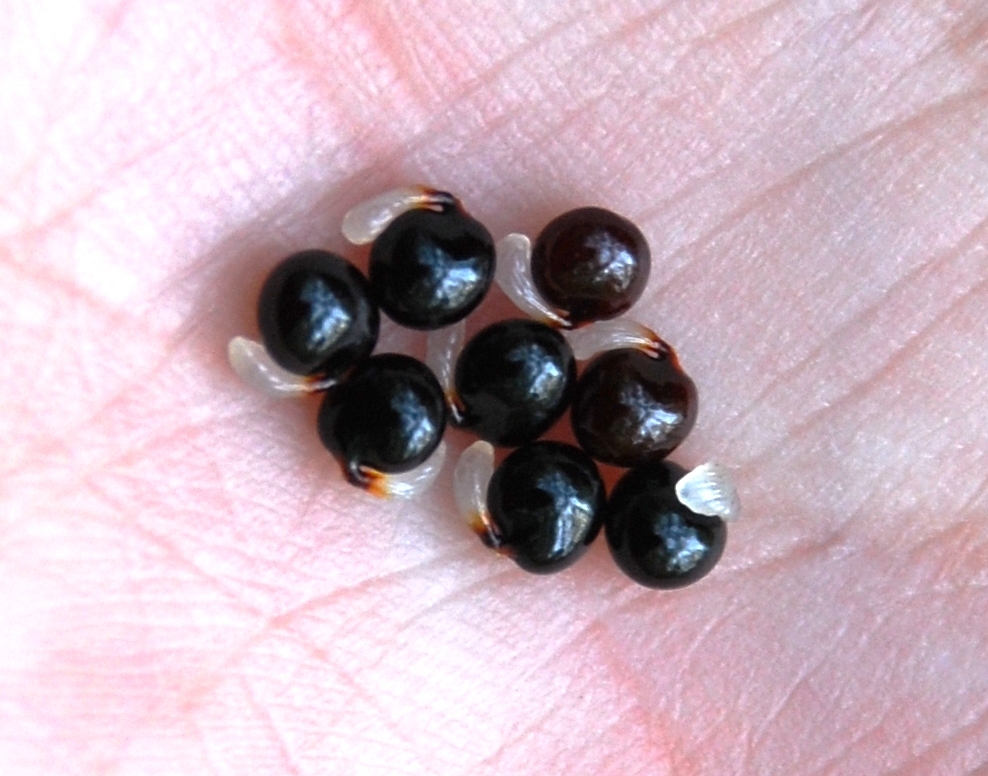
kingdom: Plantae
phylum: Tracheophyta
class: Magnoliopsida
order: Ranunculales
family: Papaveraceae
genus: Corydalis
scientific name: Corydalis cava
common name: Hollowroot
